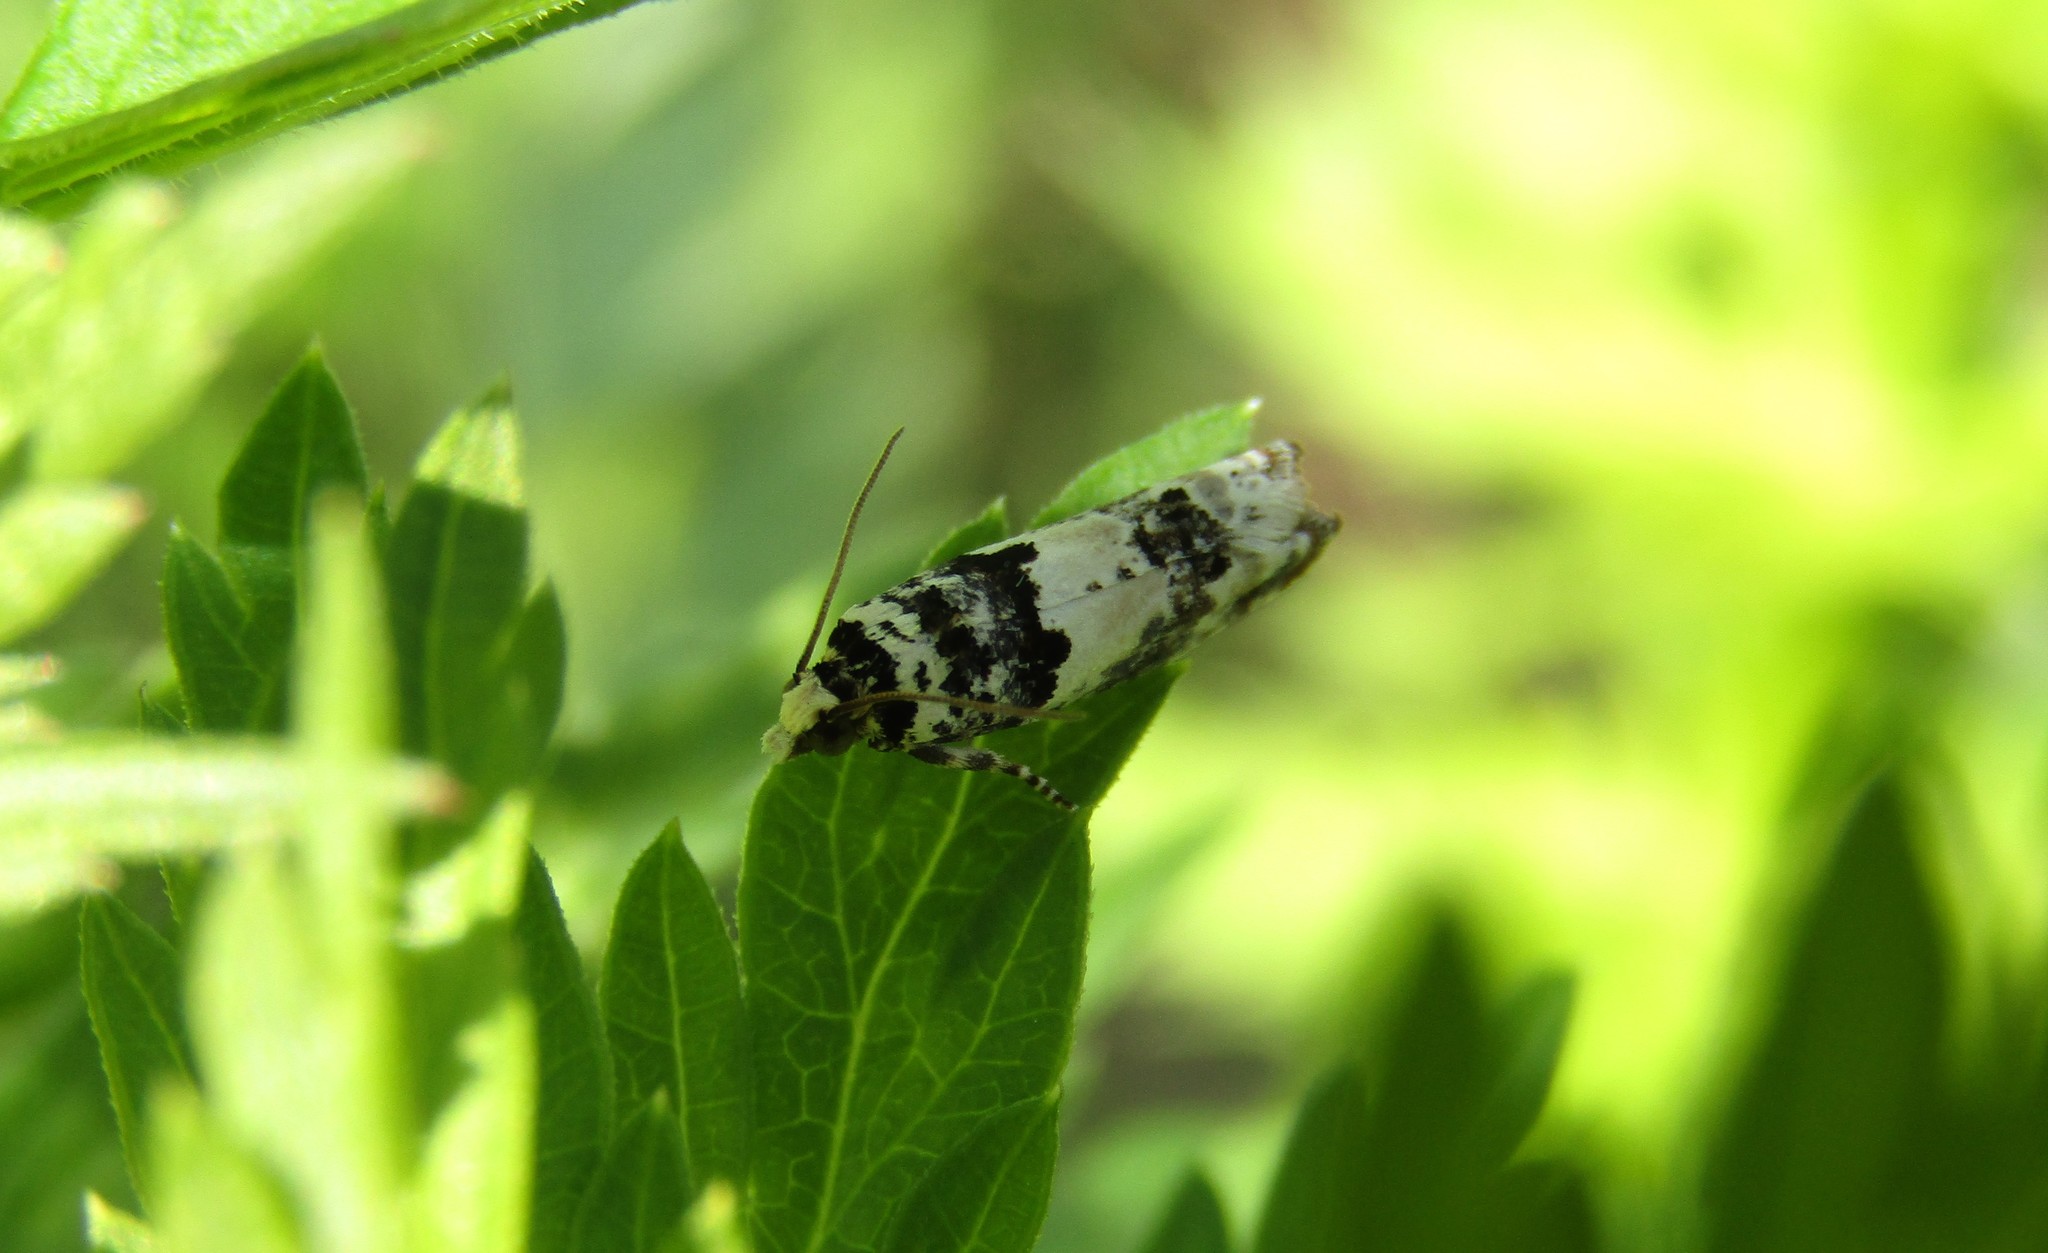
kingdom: Animalia
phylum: Arthropoda
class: Insecta
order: Lepidoptera
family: Tortricidae
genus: Epinotia
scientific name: Epinotia thapsiana
